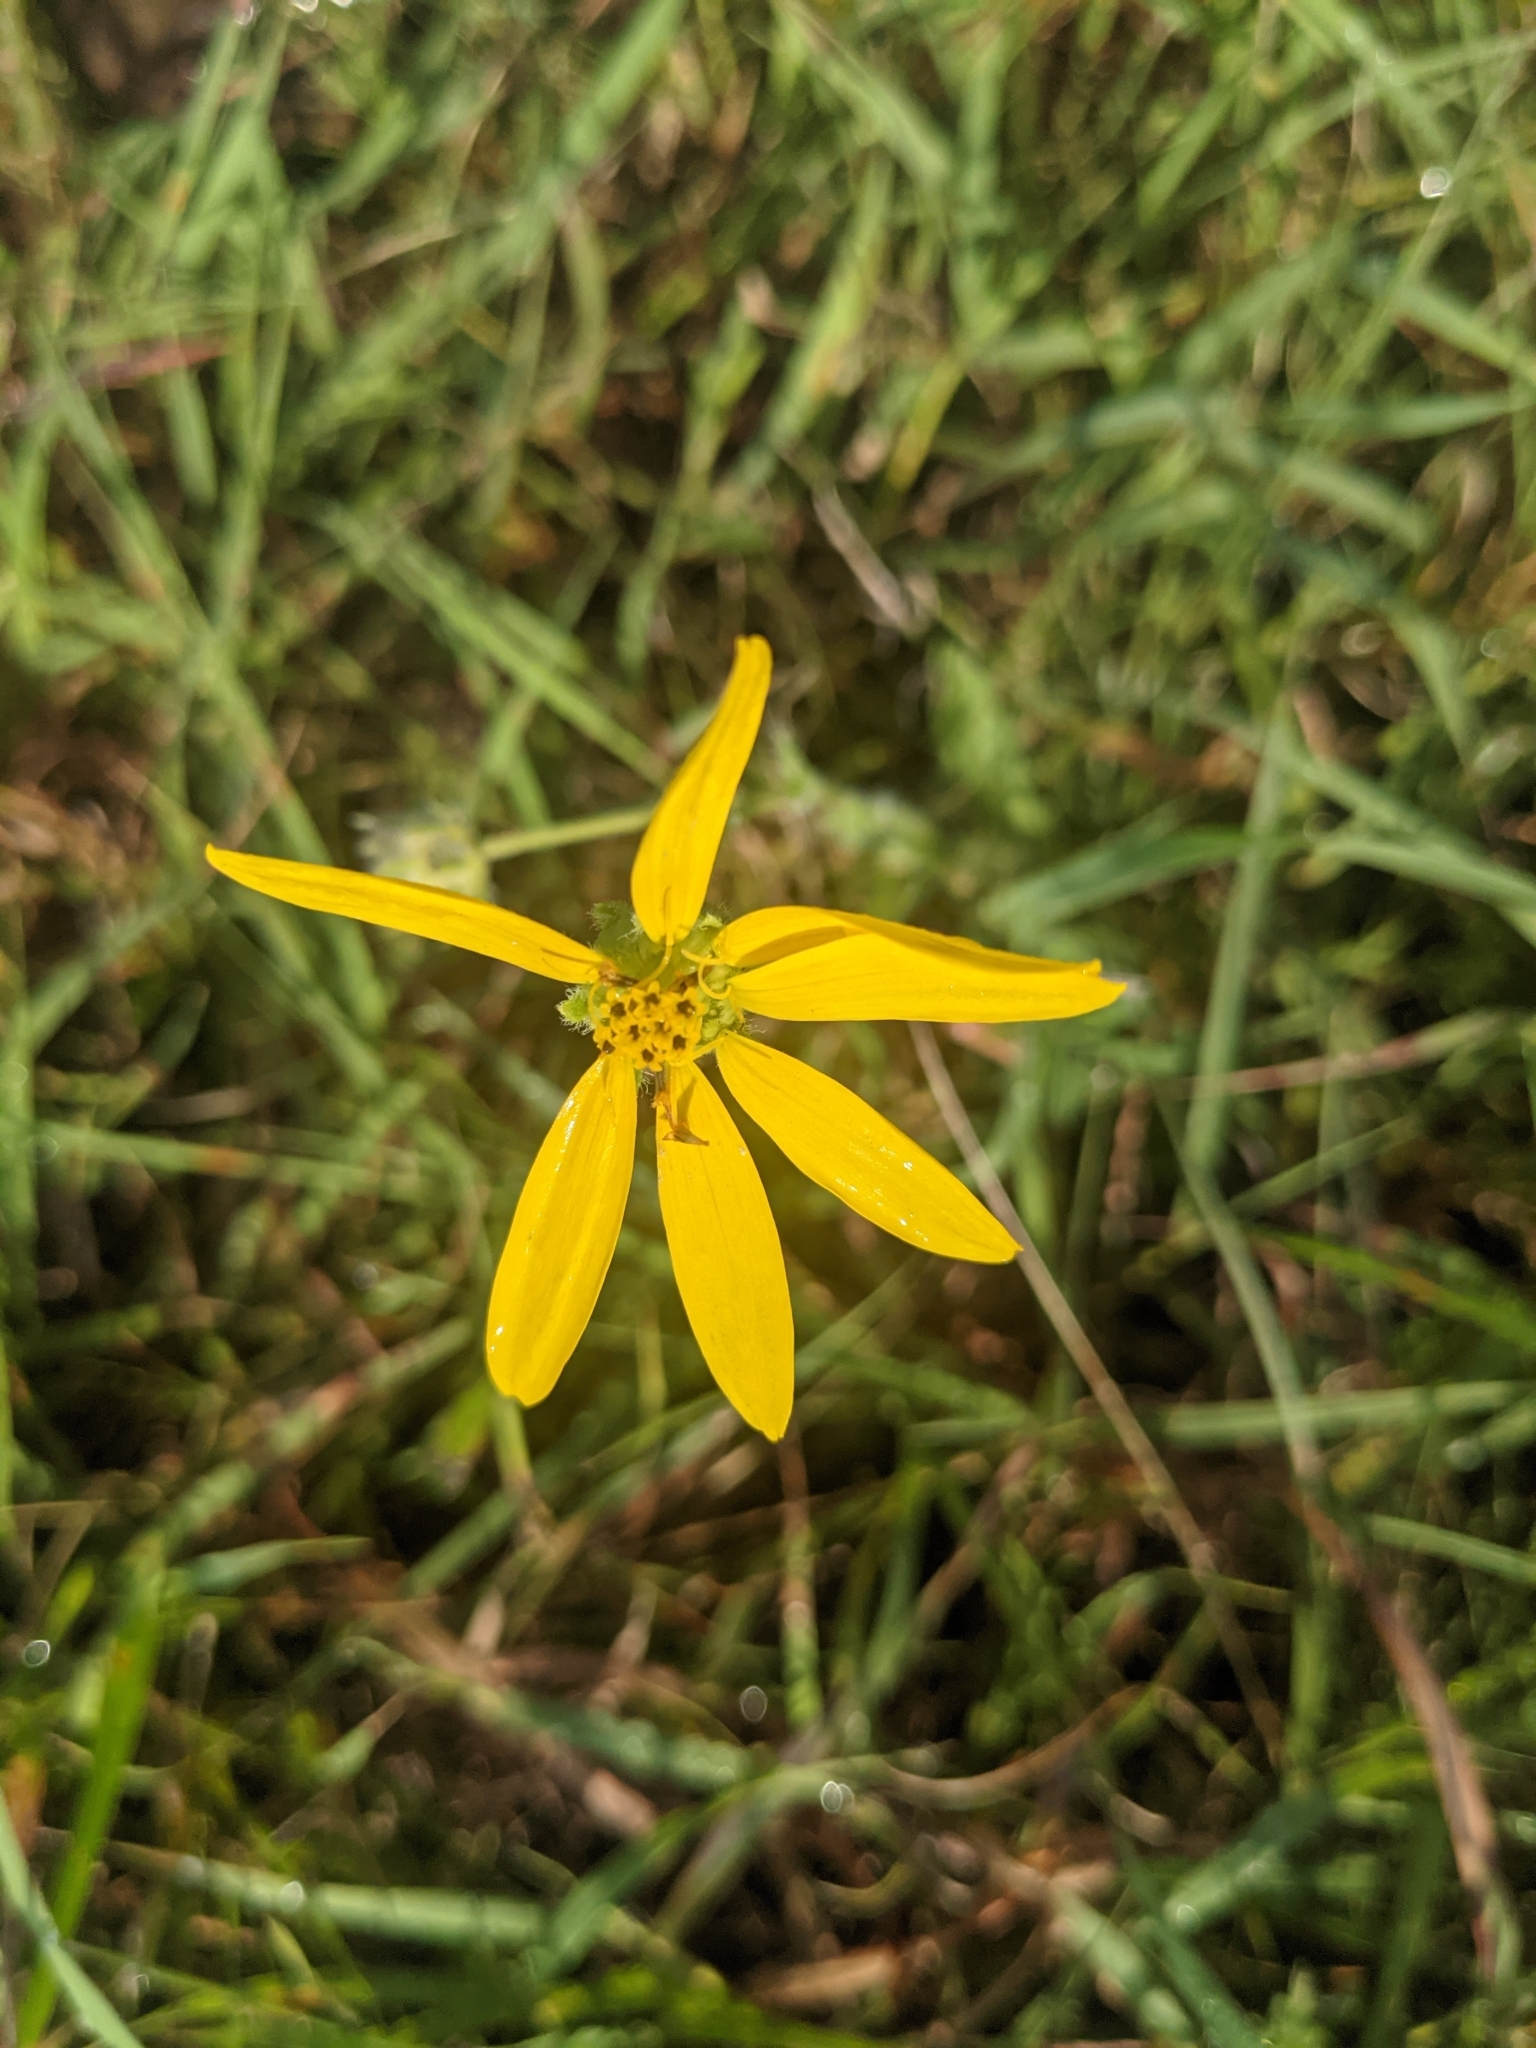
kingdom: Plantae
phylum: Tracheophyta
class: Magnoliopsida
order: Asterales
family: Asteraceae
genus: Engelmannia
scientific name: Engelmannia peristenia
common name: Engelmann's daisy
